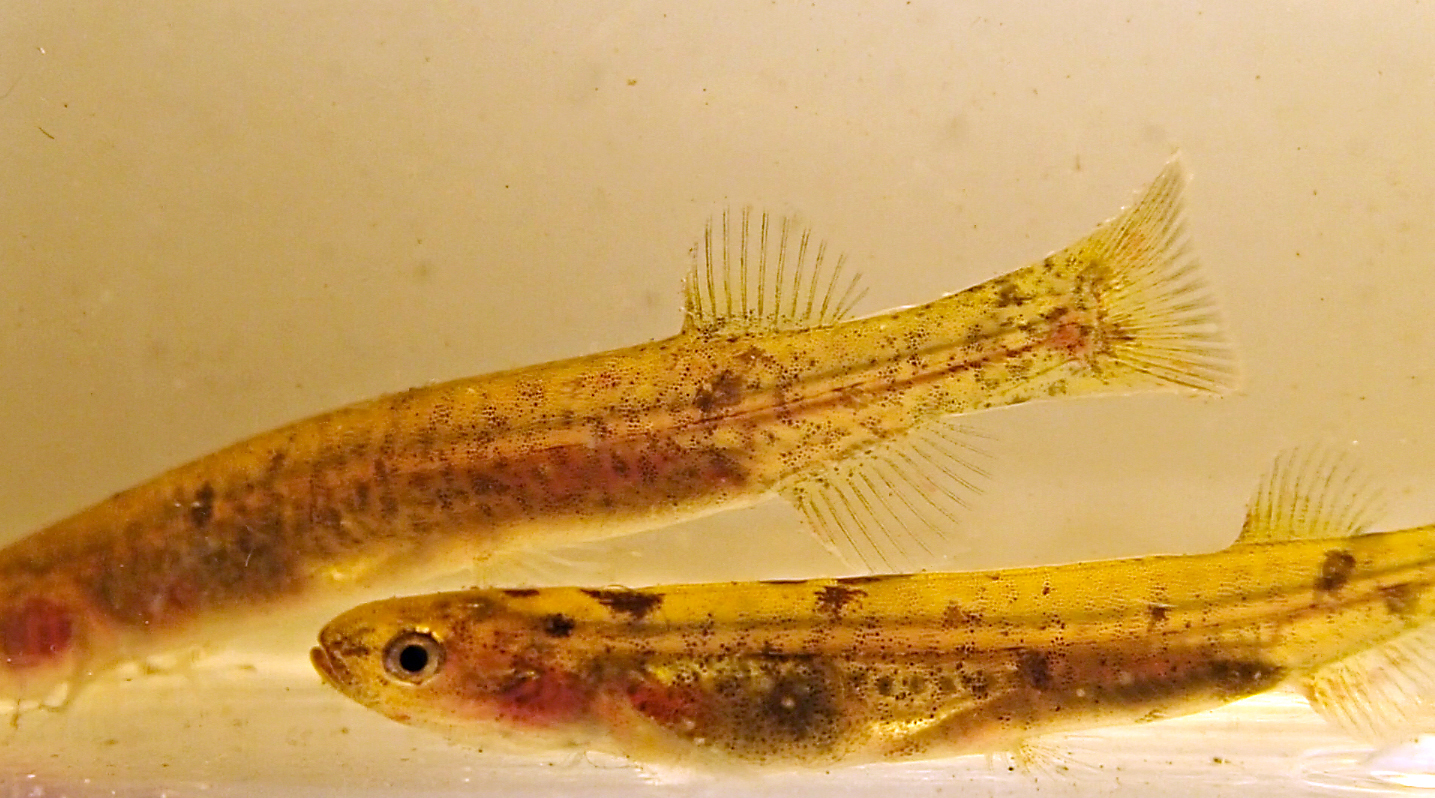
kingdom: Animalia
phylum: Chordata
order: Osmeriformes
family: Galaxiidae
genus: Neochanna
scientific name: Neochanna cleaveri
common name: Tasmanian mudfish
